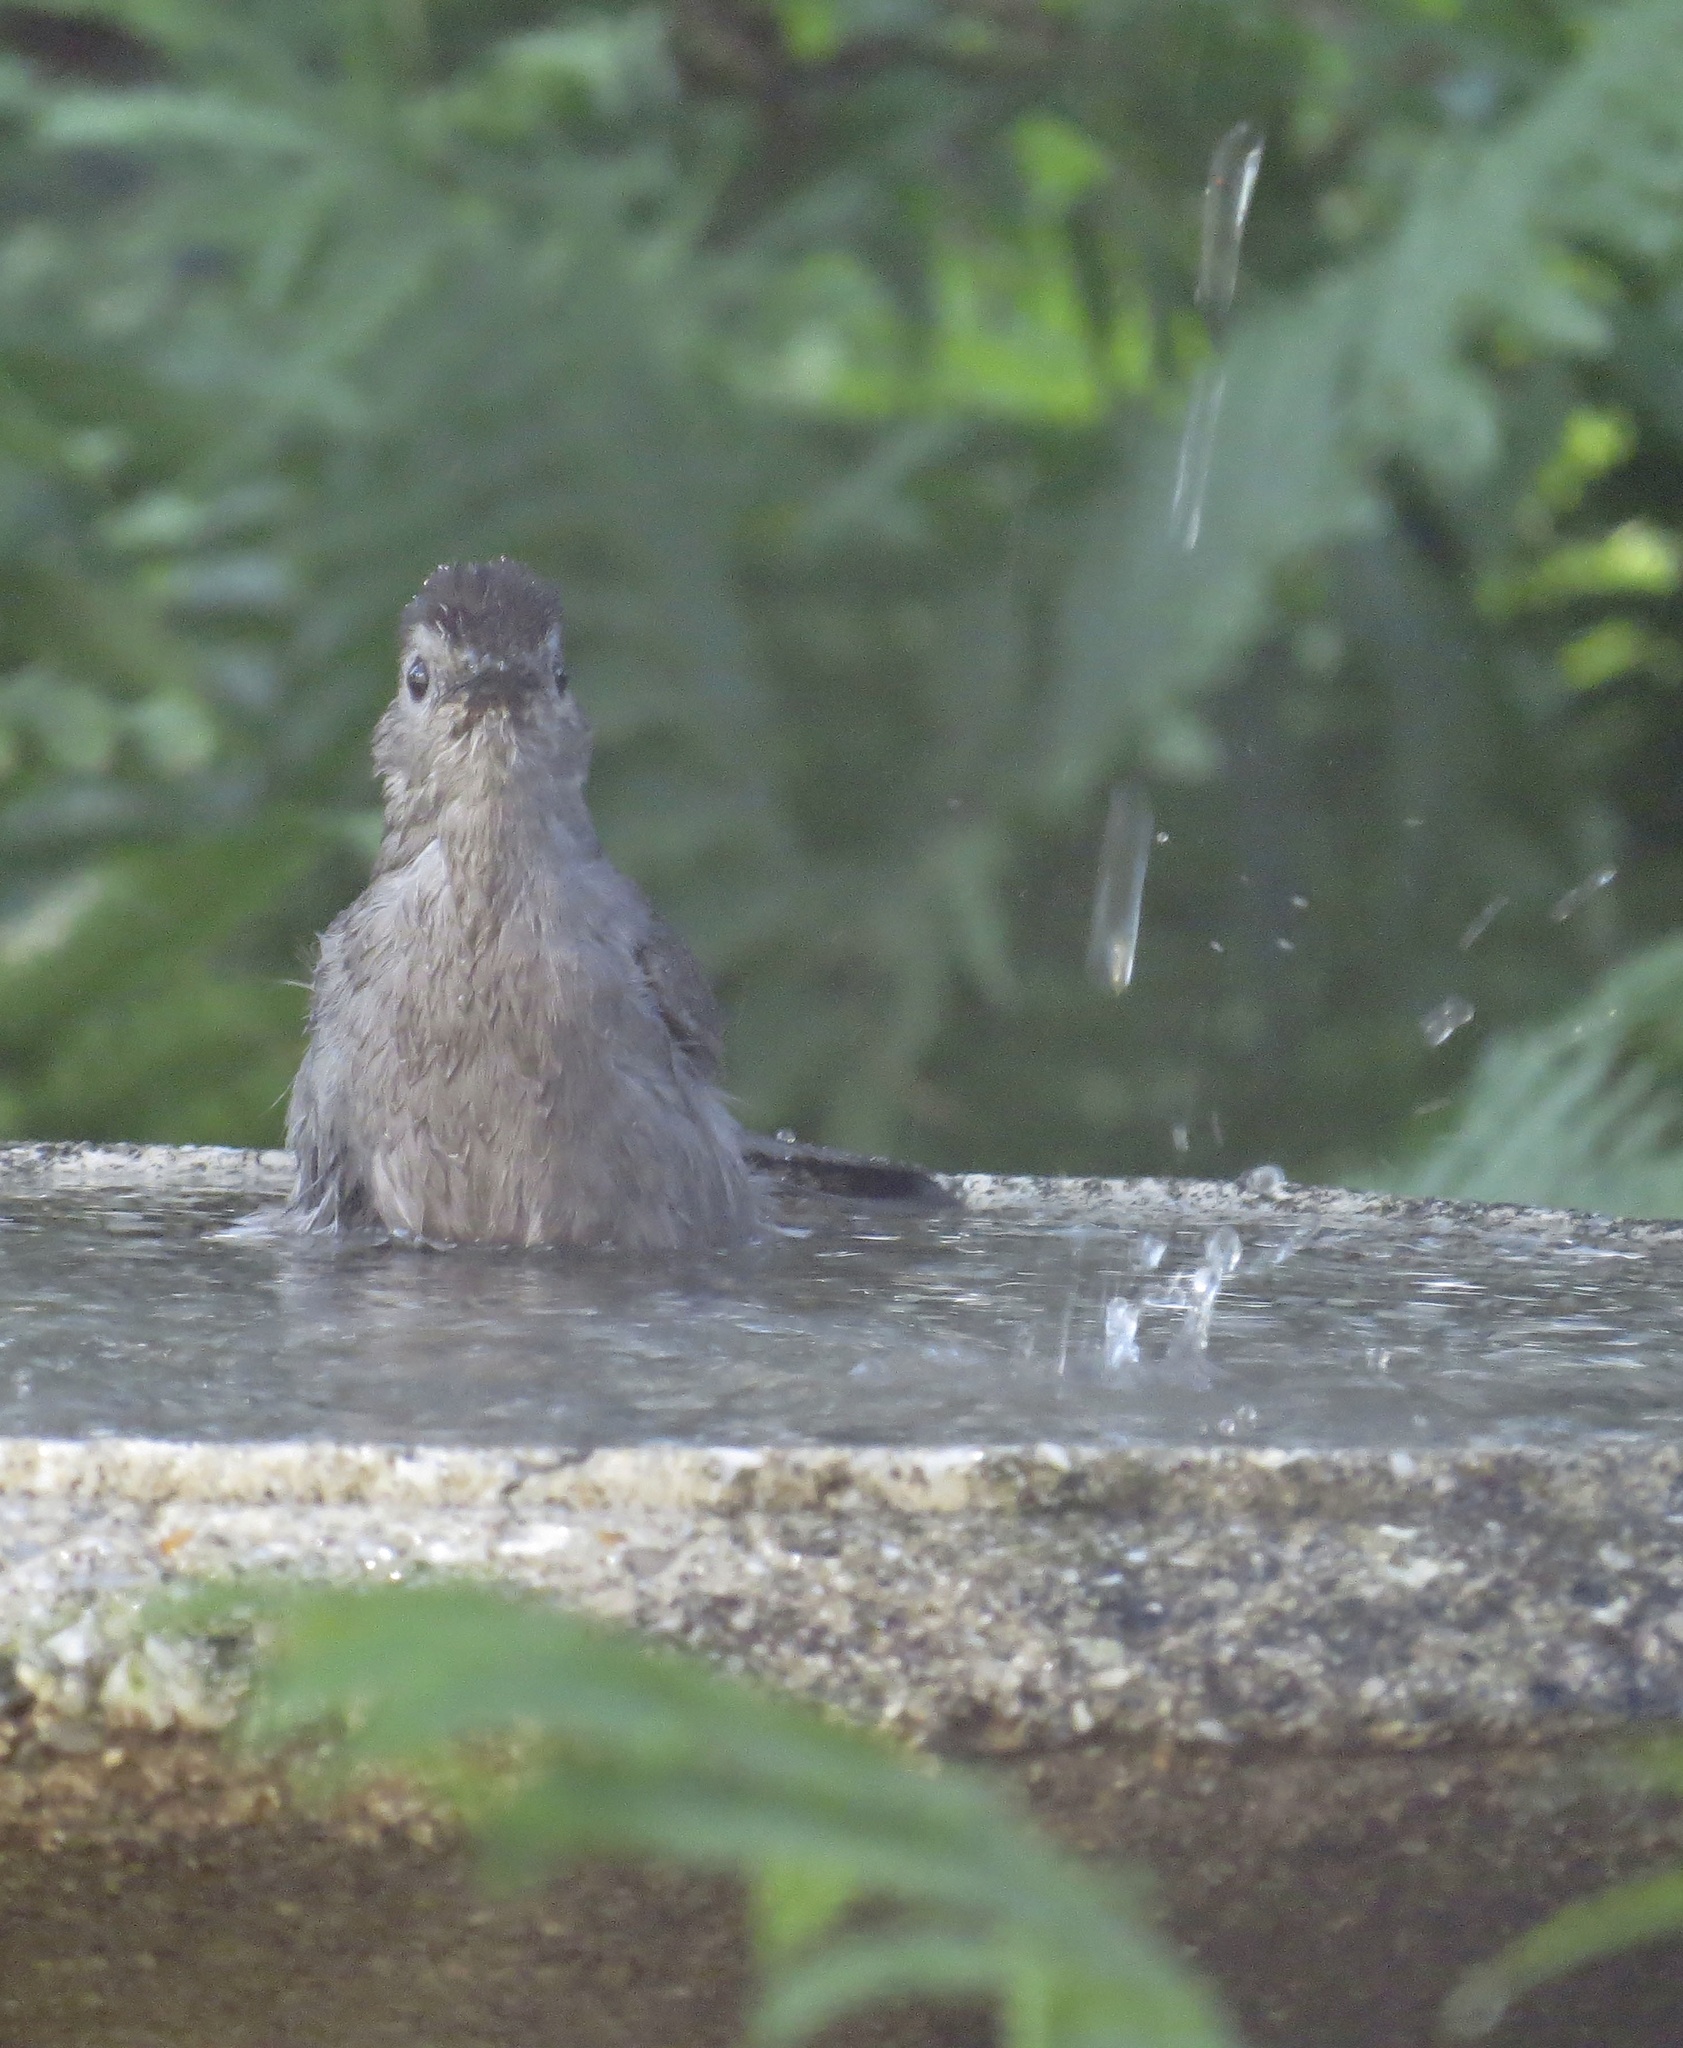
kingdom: Animalia
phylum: Chordata
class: Aves
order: Passeriformes
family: Mimidae
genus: Dumetella
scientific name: Dumetella carolinensis
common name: Gray catbird
